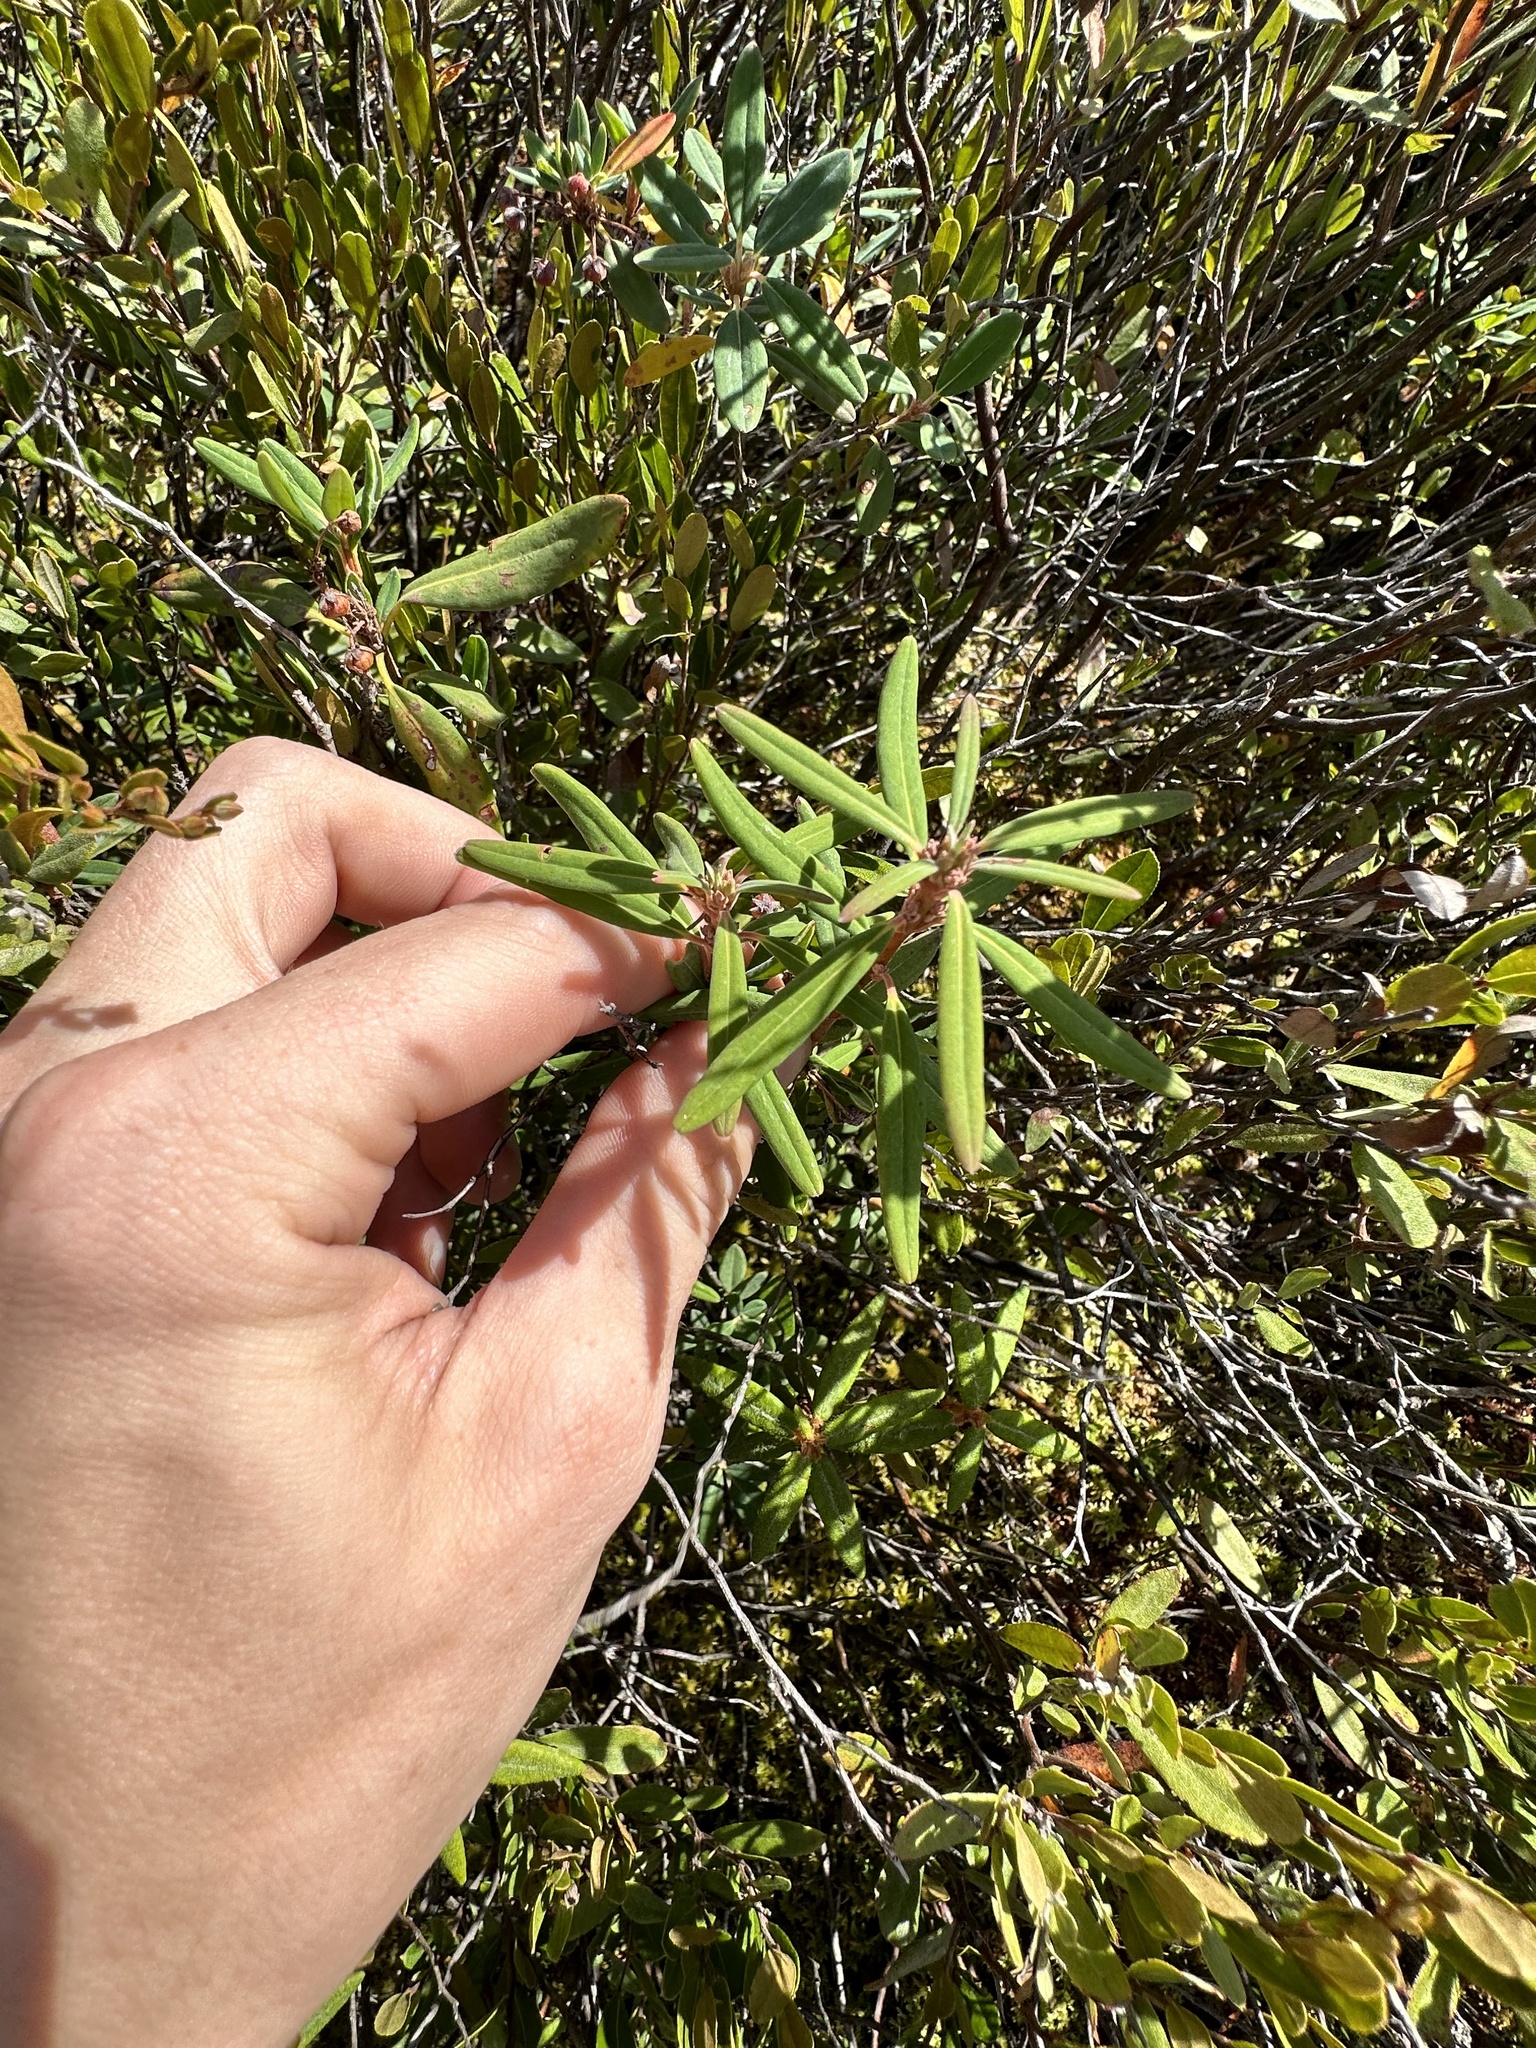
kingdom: Plantae
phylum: Tracheophyta
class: Magnoliopsida
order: Ericales
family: Ericaceae
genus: Rhododendron
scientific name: Rhododendron groenlandicum
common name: Bog labrador tea
